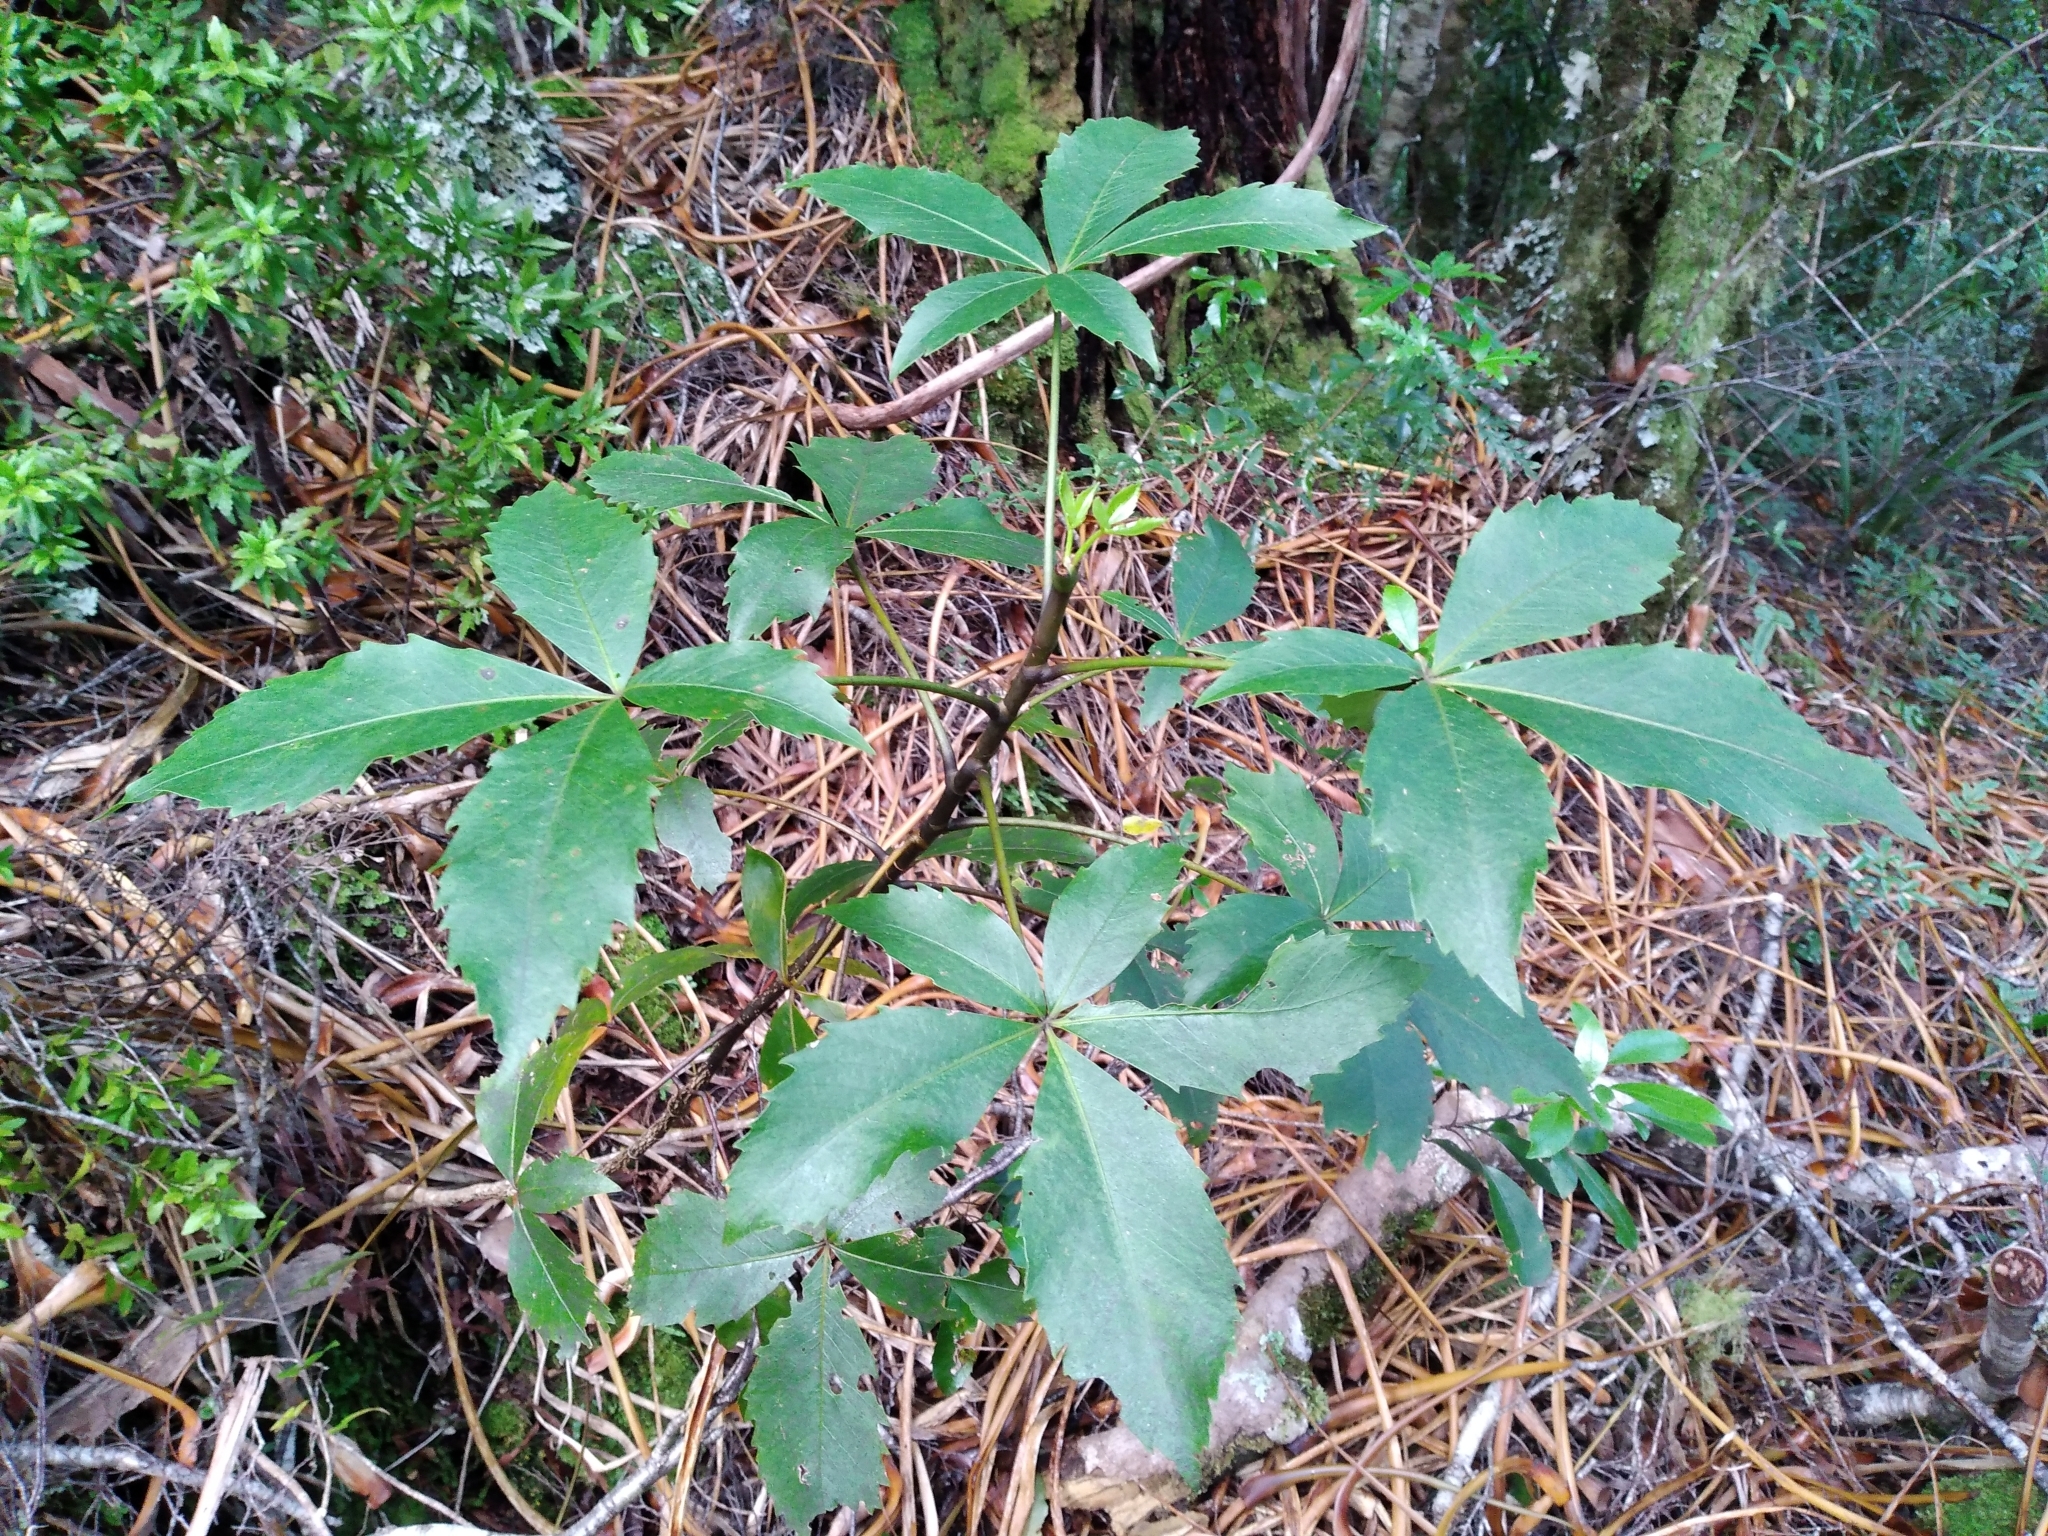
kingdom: Plantae
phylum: Tracheophyta
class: Magnoliopsida
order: Apiales
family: Araliaceae
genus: Neopanax
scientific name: Neopanax colensoi
